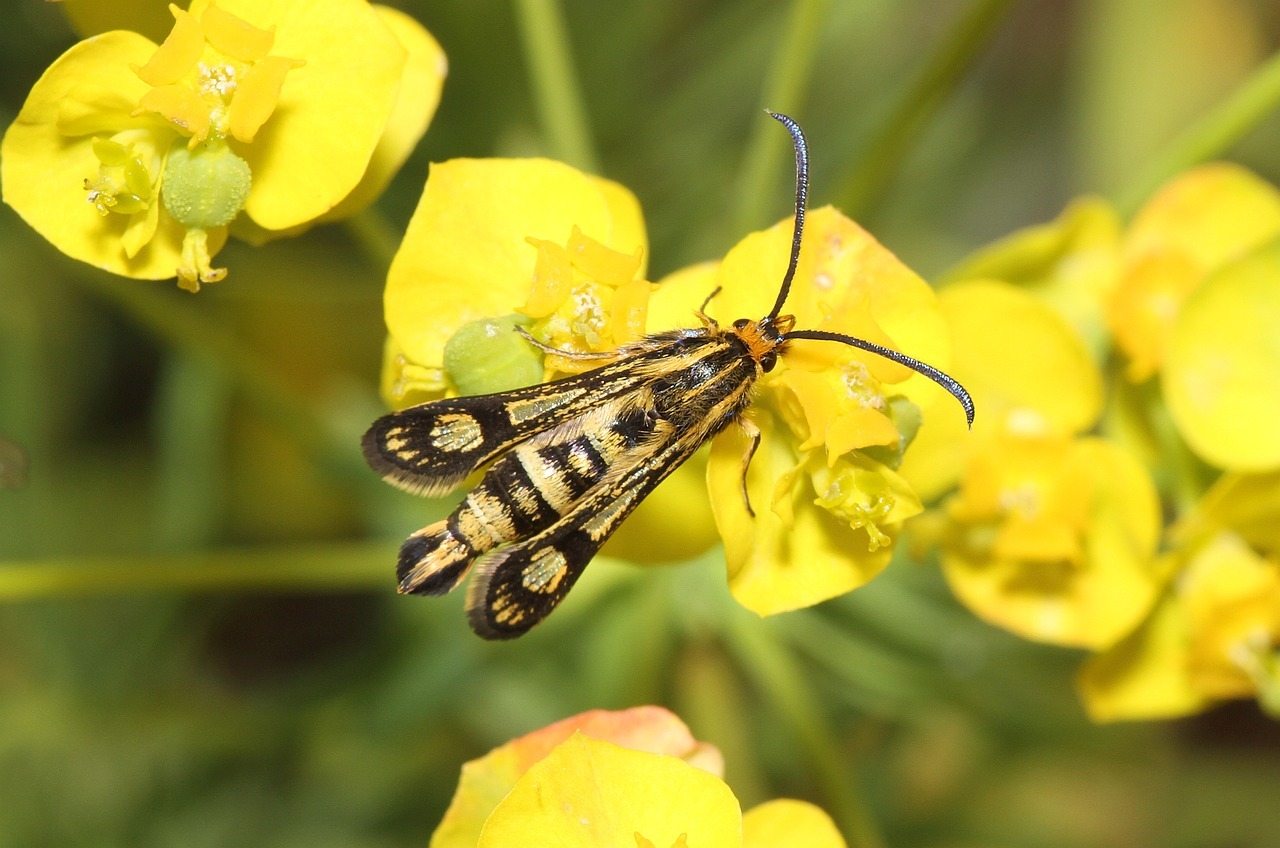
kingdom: Animalia
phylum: Arthropoda
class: Insecta
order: Lepidoptera
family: Sesiidae
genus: Chamaesphecia
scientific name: Chamaesphecia empiformis
